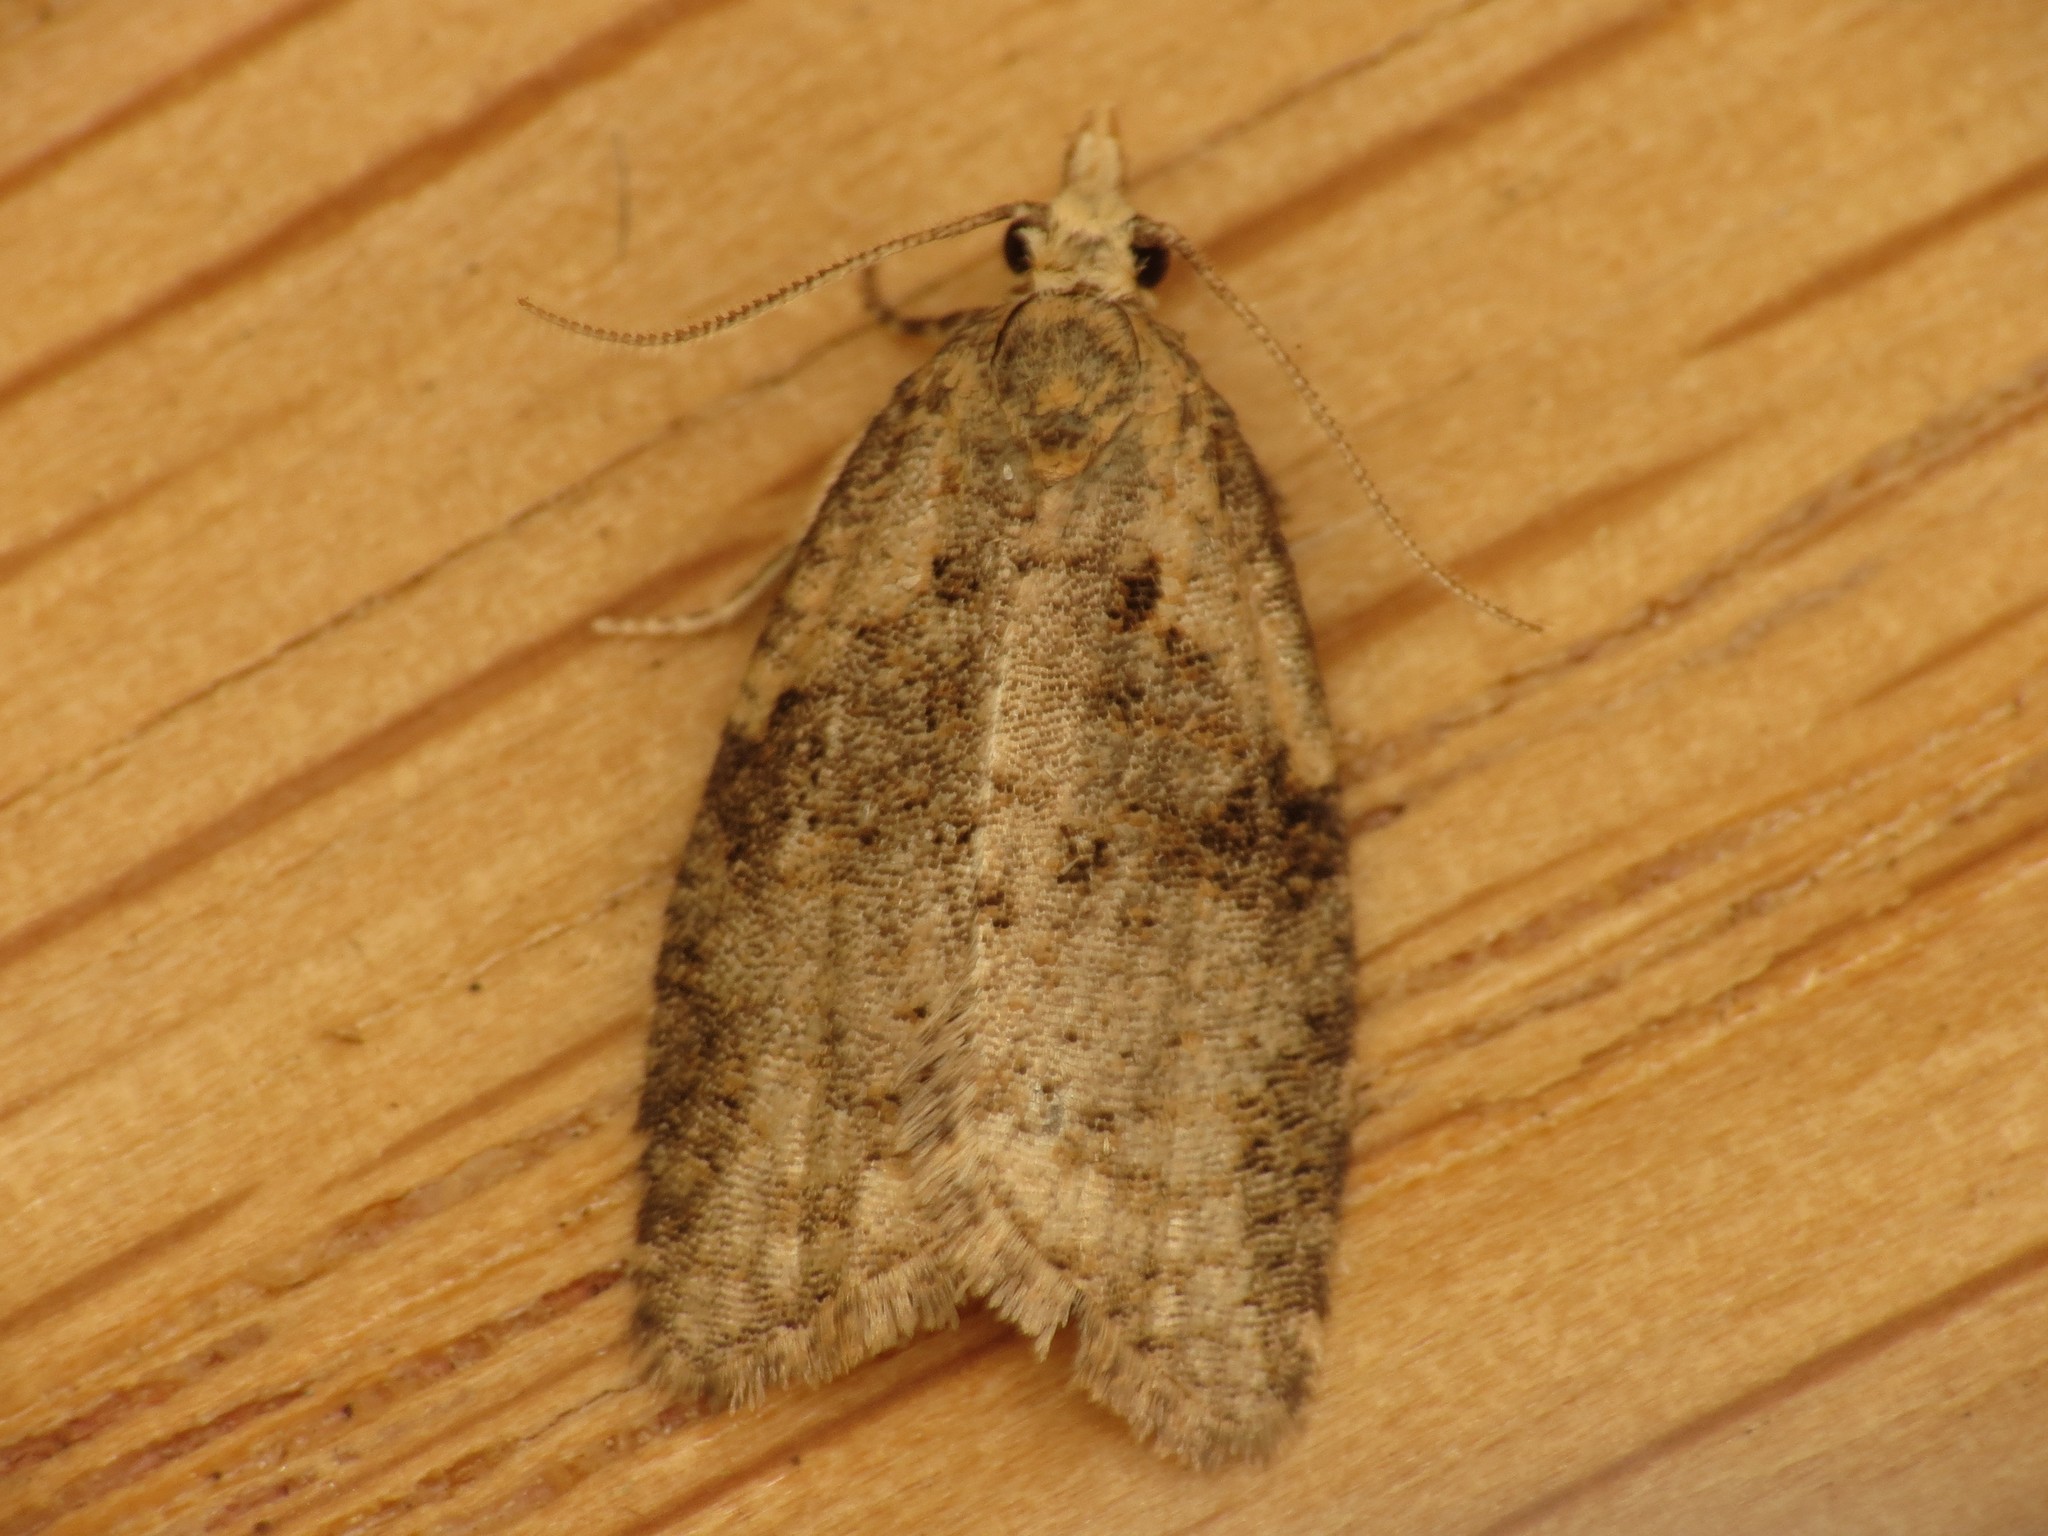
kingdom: Animalia
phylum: Arthropoda
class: Insecta
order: Lepidoptera
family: Tortricidae
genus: Capua
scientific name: Capua vulgana
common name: Common twist
